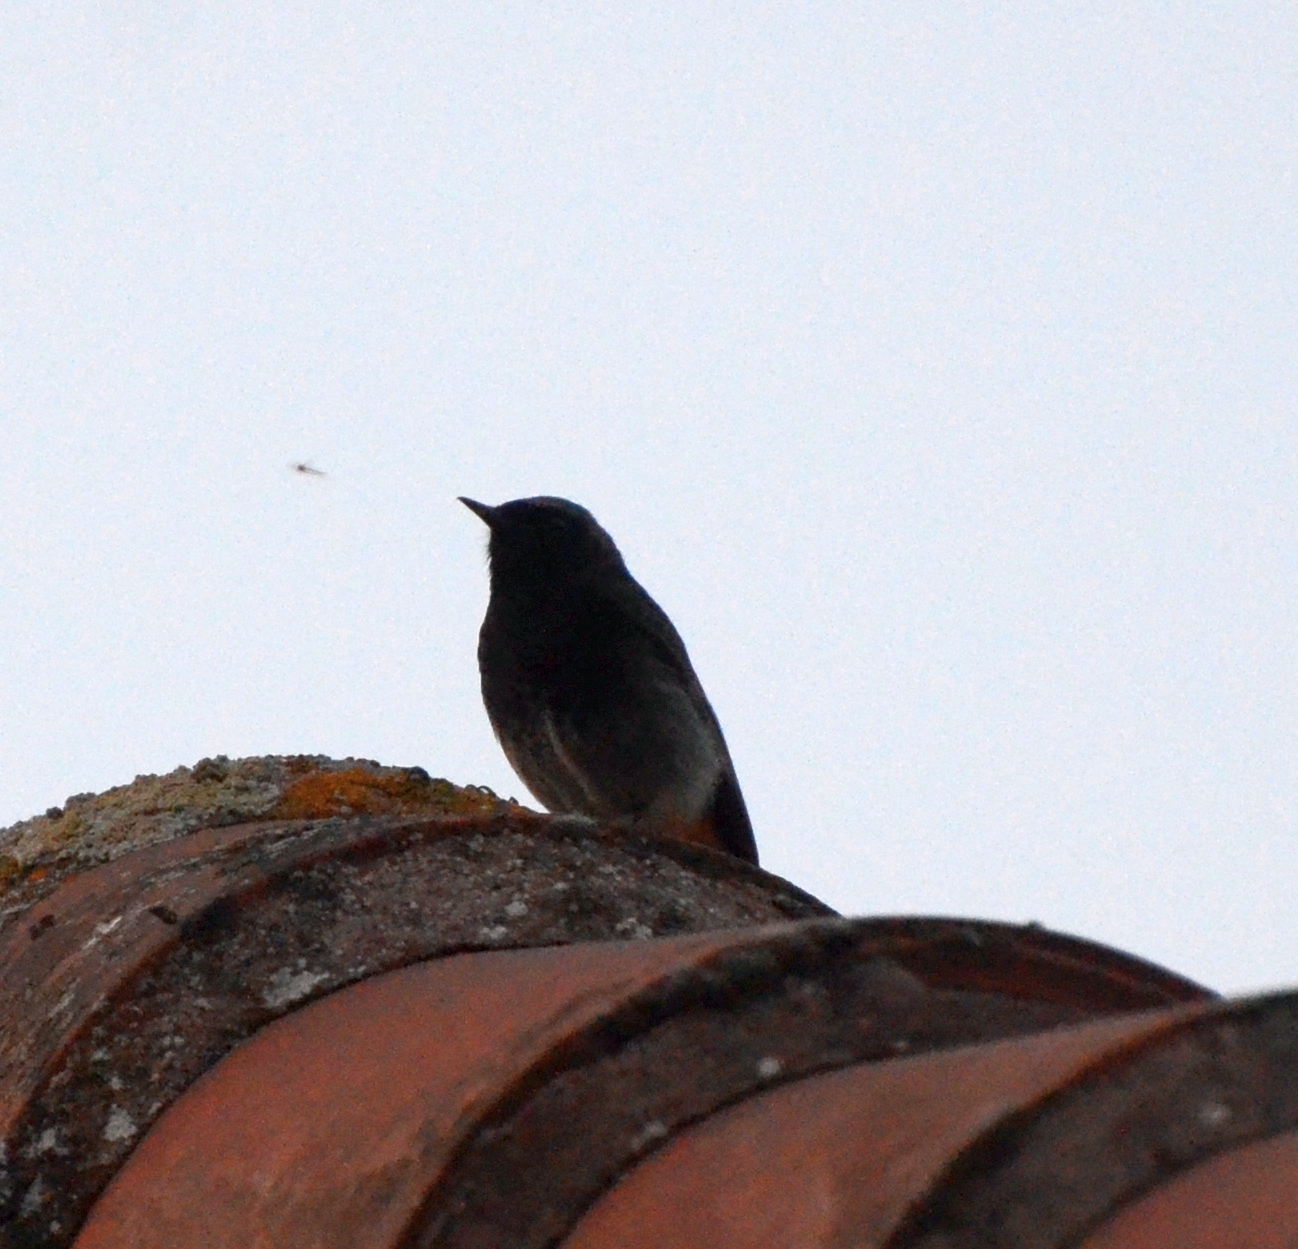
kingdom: Animalia
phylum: Chordata
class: Aves
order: Passeriformes
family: Muscicapidae
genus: Phoenicurus
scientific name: Phoenicurus ochruros
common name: Black redstart
